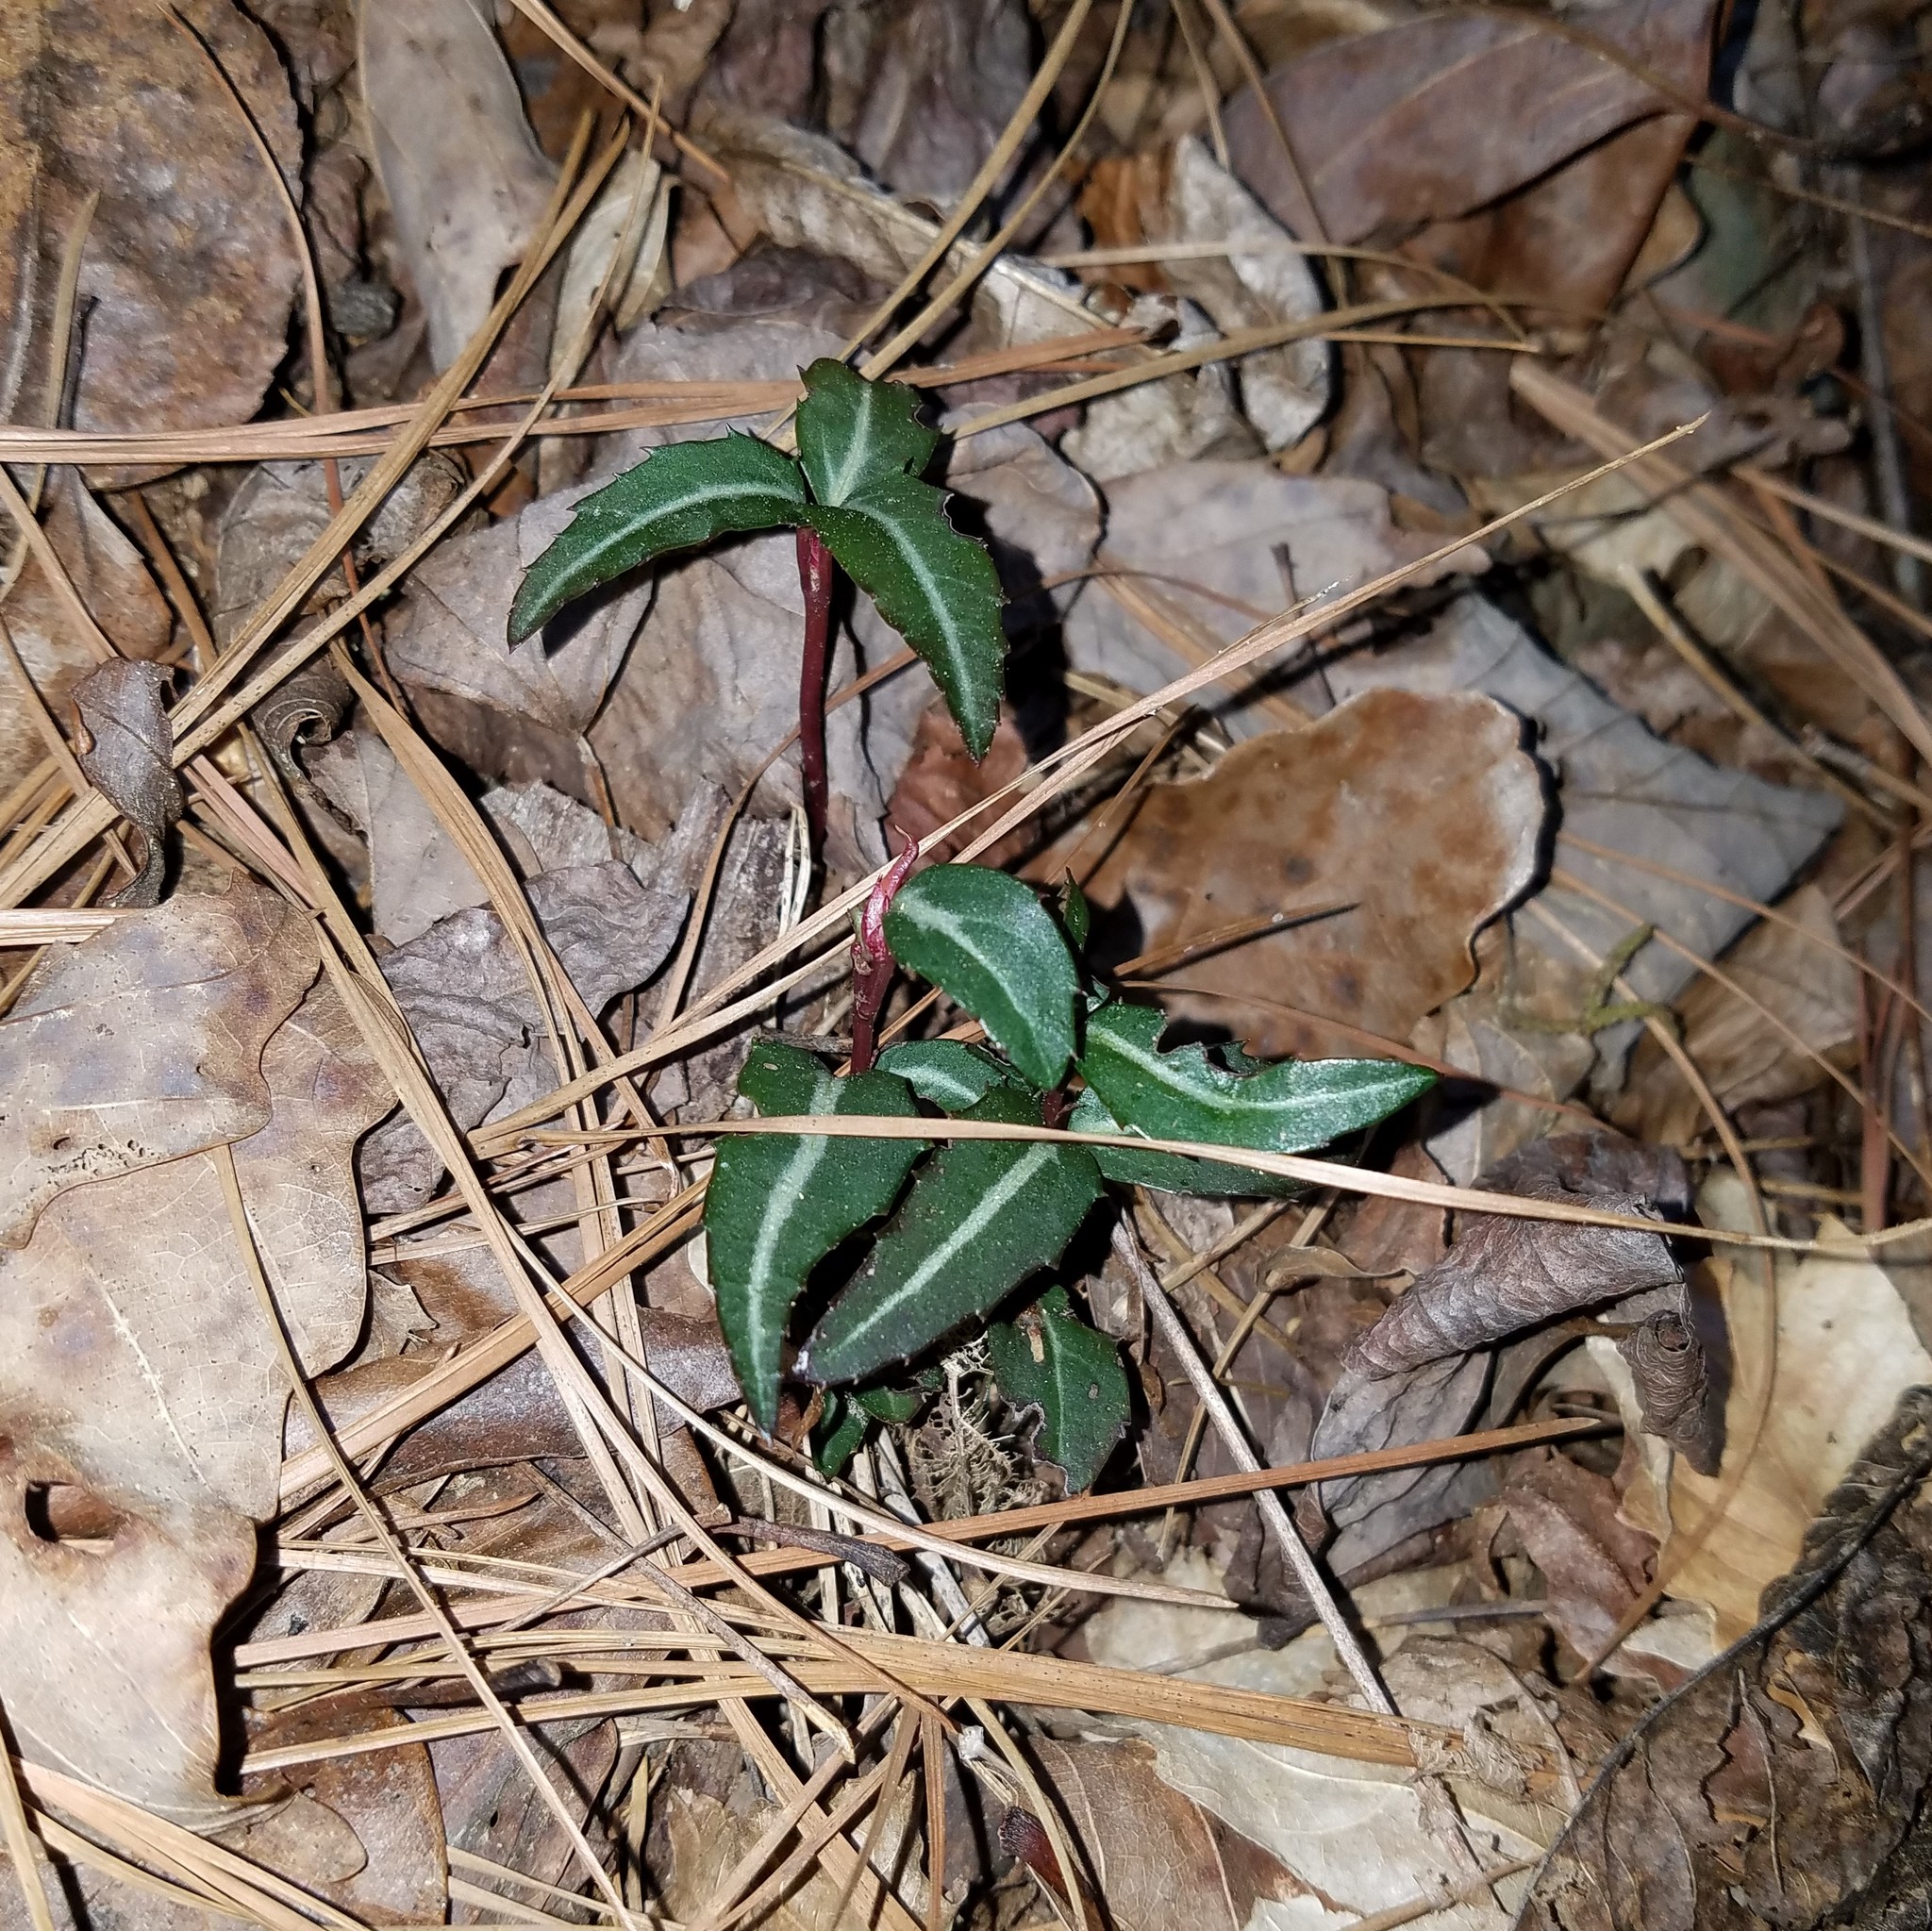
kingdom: Plantae
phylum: Tracheophyta
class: Magnoliopsida
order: Ericales
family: Ericaceae
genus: Chimaphila
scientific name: Chimaphila maculata
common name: Spotted pipsissewa
